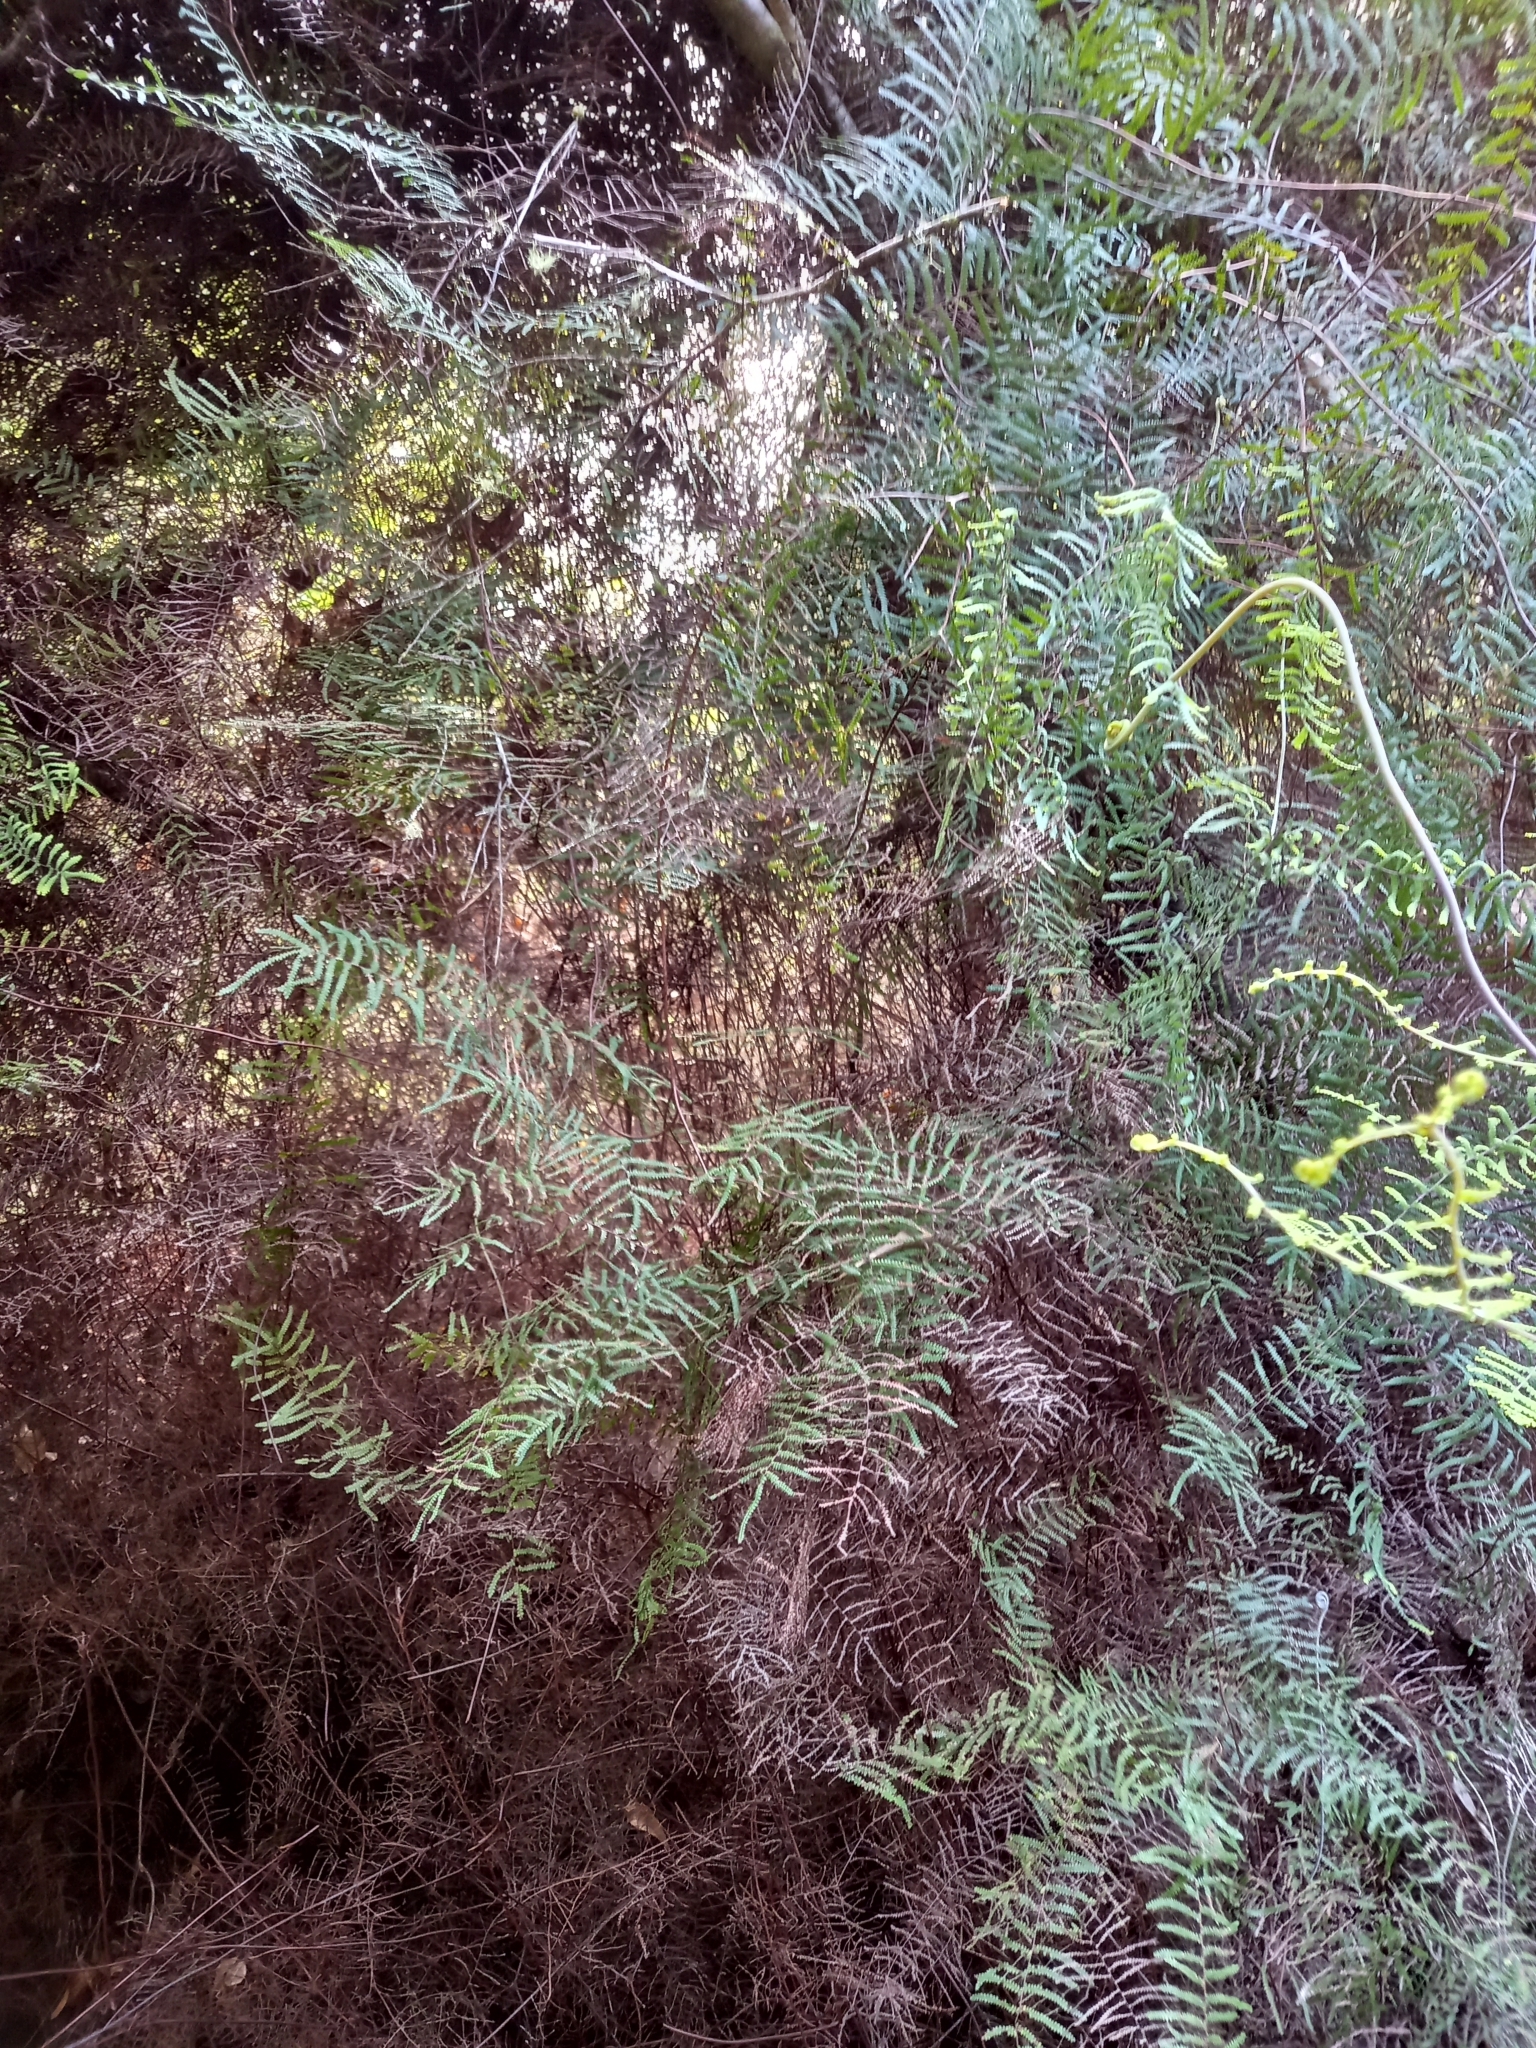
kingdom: Plantae
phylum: Tracheophyta
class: Polypodiopsida
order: Gleicheniales
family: Gleicheniaceae
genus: Gleichenia
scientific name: Gleichenia polypodioides
